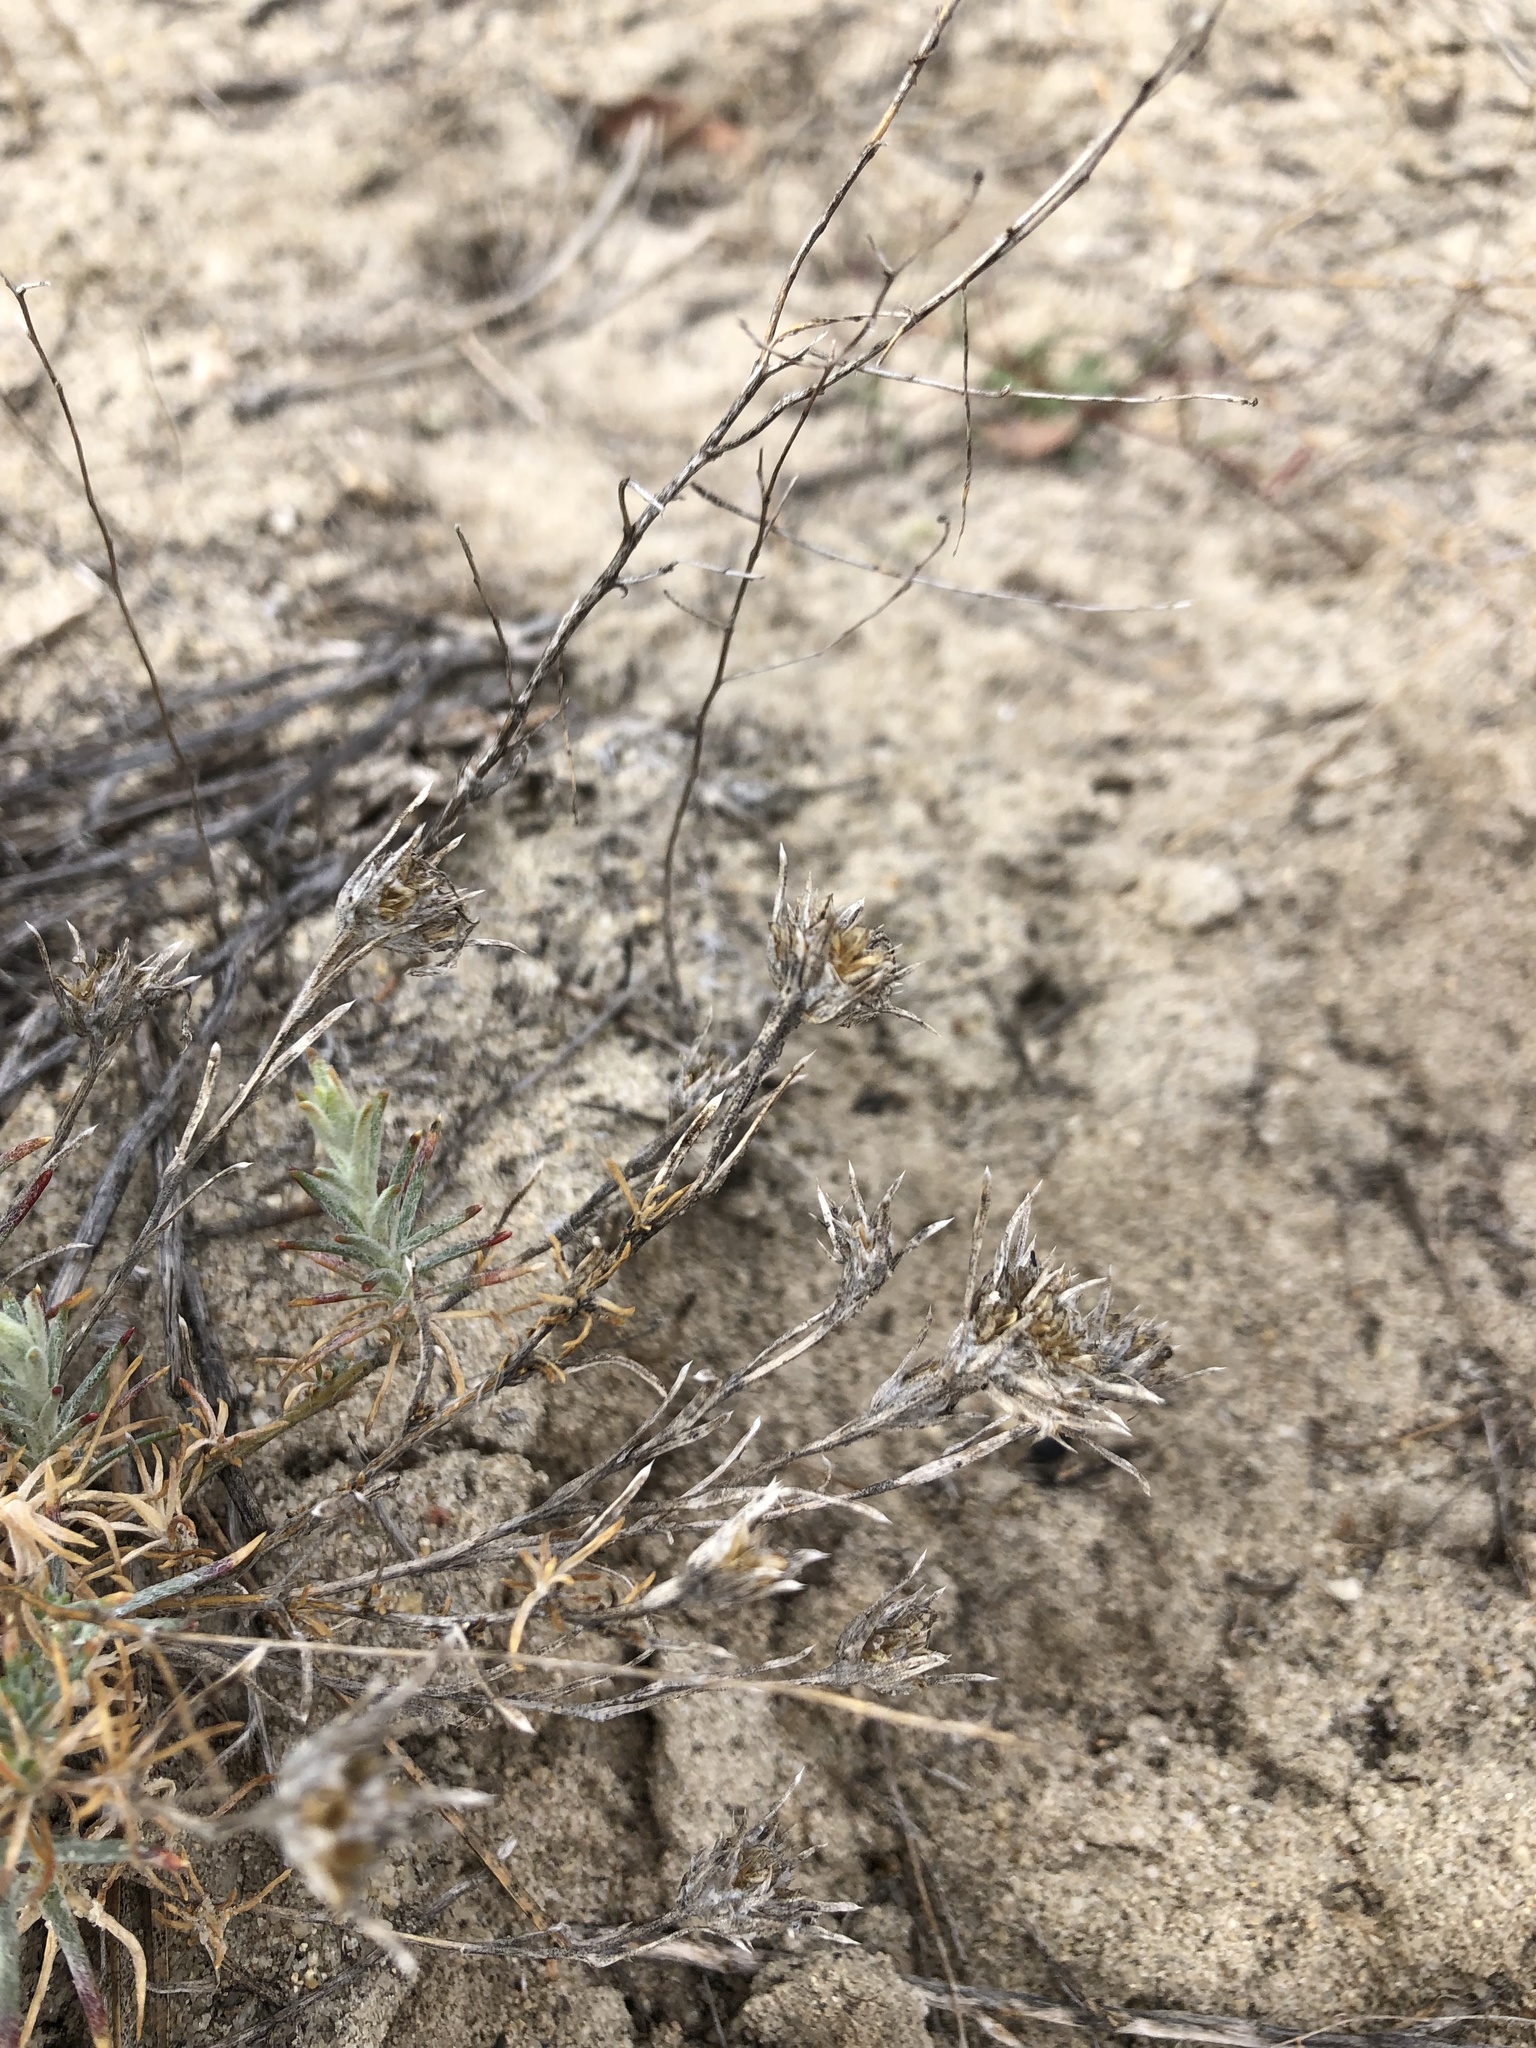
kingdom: Plantae
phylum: Tracheophyta
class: Magnoliopsida
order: Ericales
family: Polemoniaceae
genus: Eriastrum
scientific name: Eriastrum densifolium
